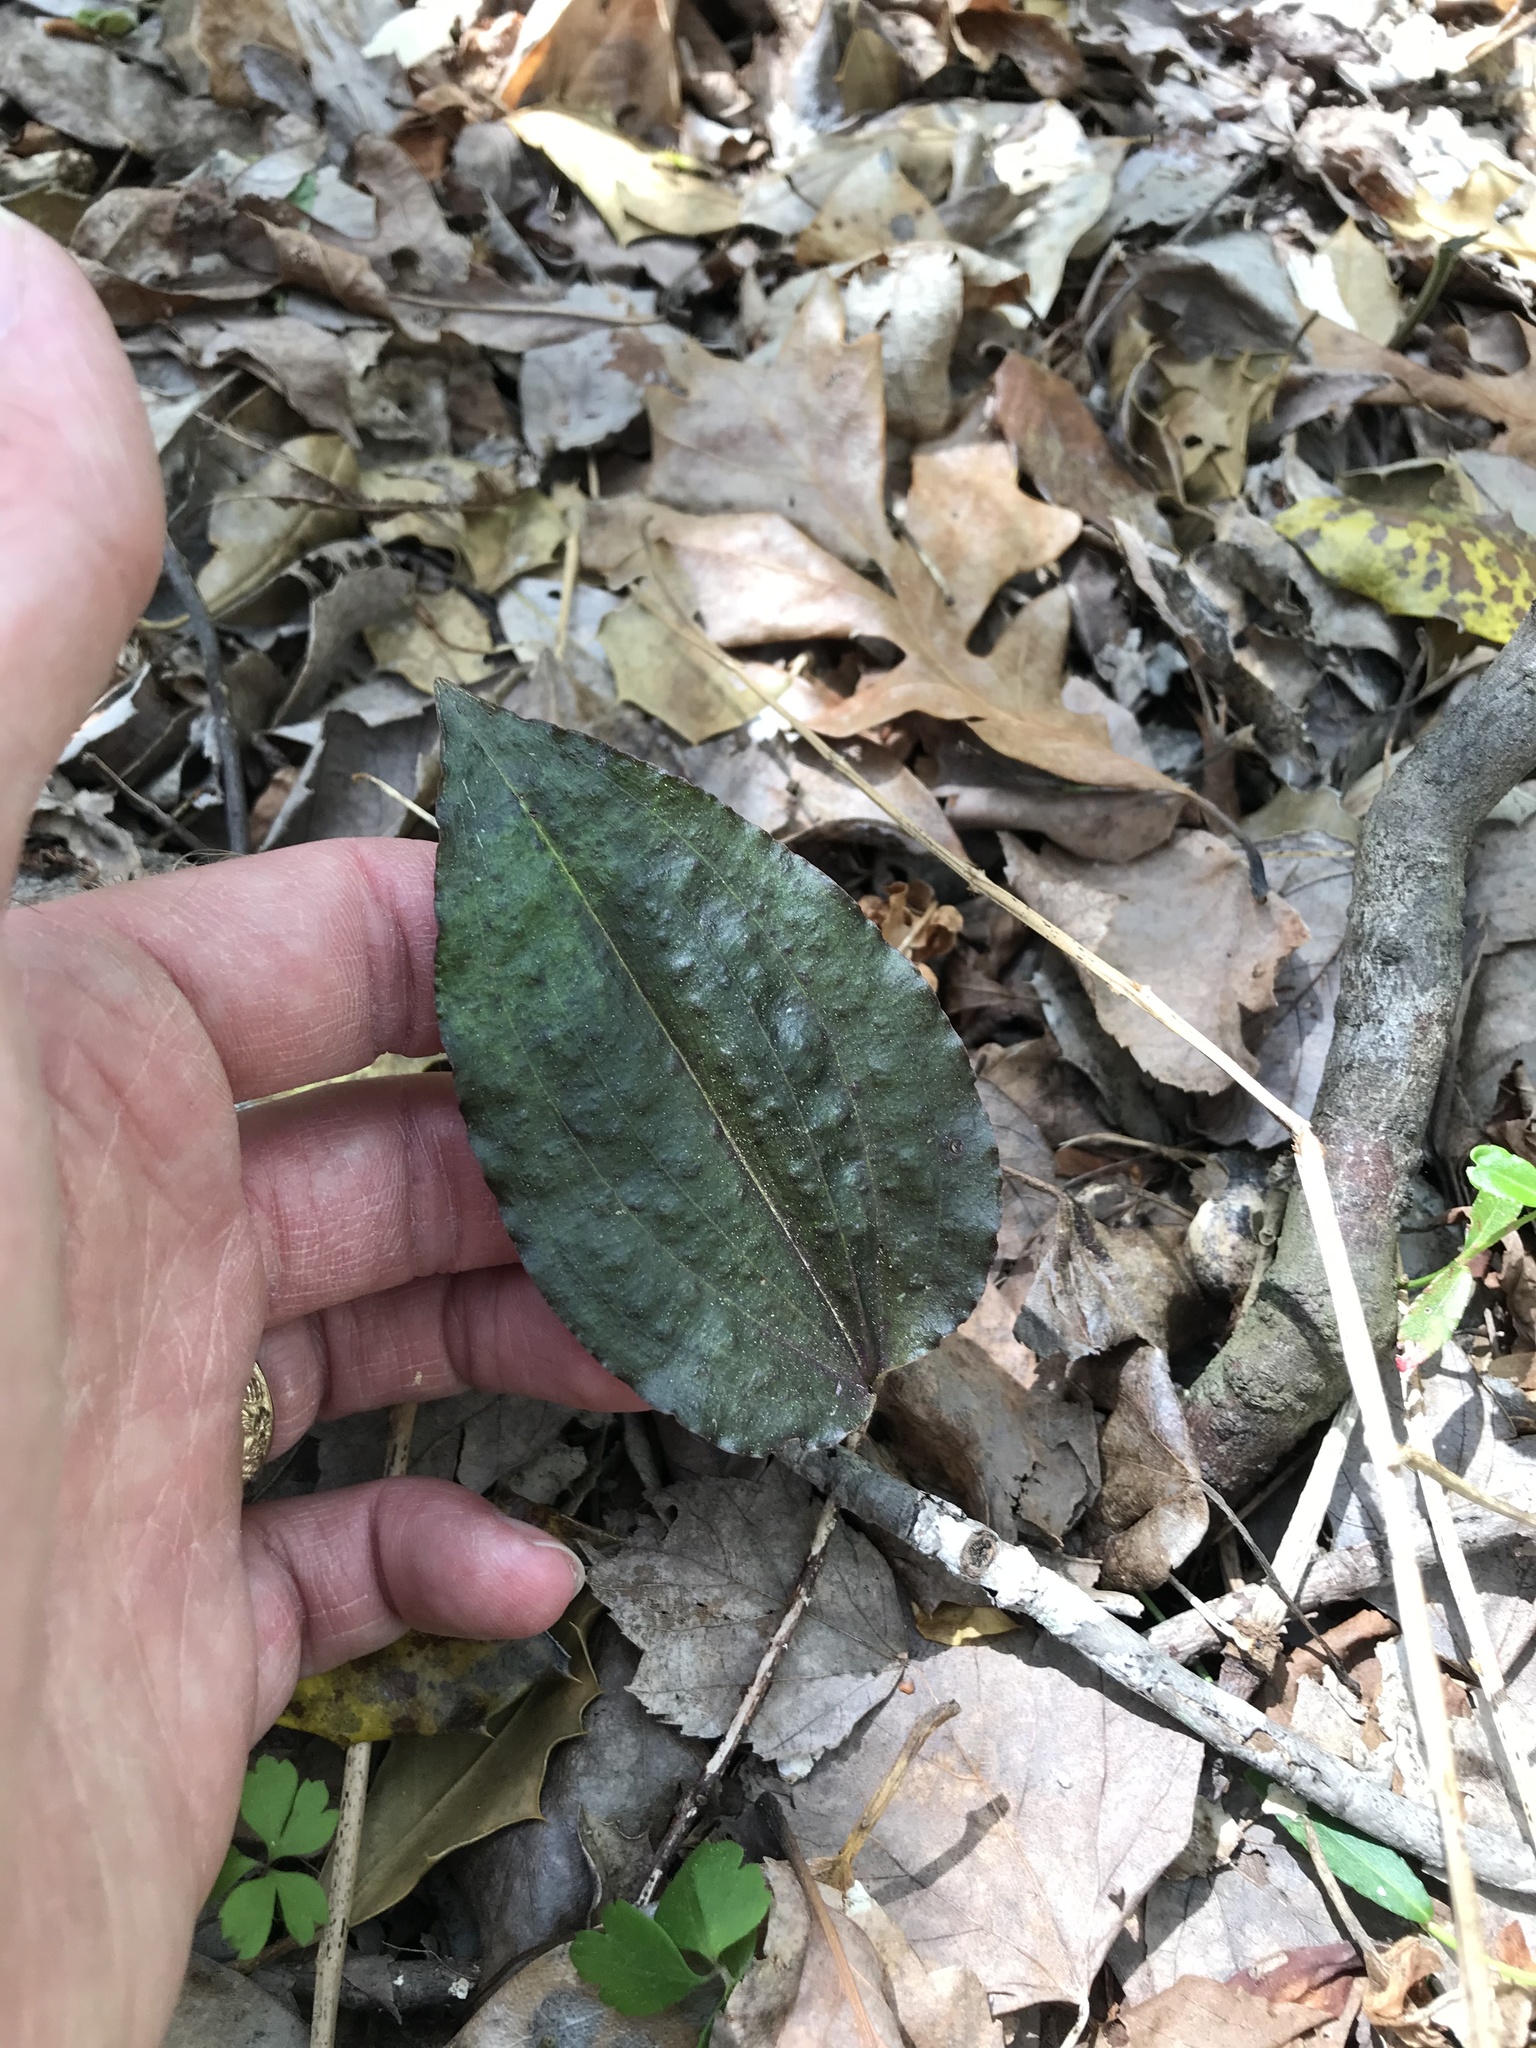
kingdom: Plantae
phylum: Tracheophyta
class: Liliopsida
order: Asparagales
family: Orchidaceae
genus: Tipularia
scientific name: Tipularia discolor
